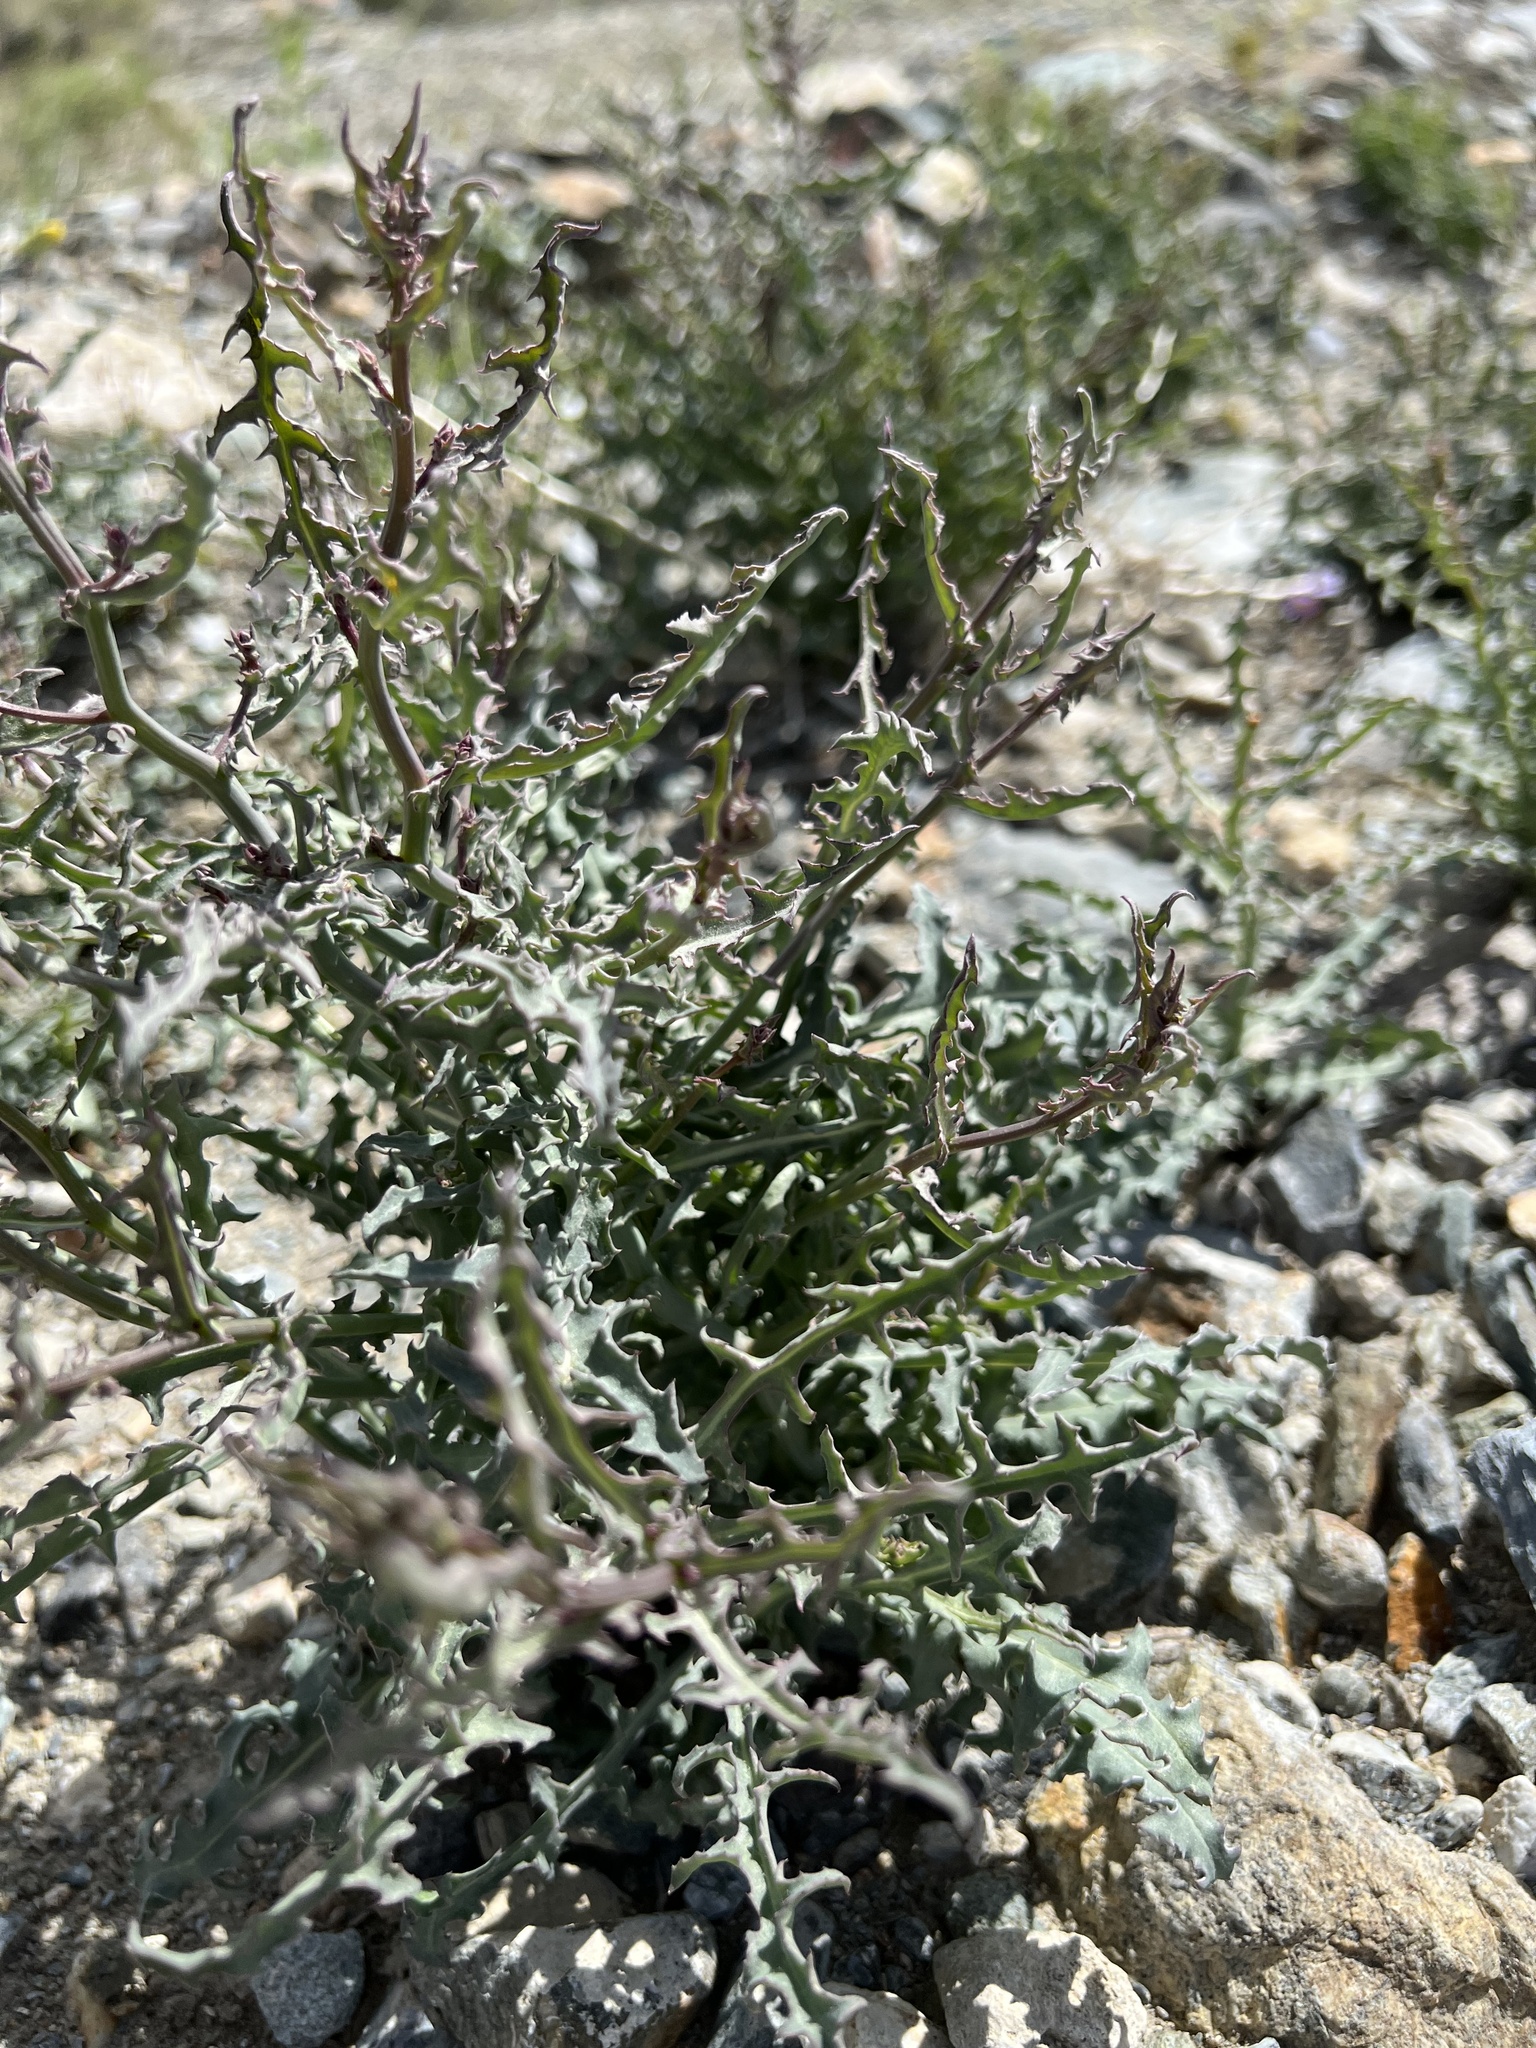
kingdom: Plantae
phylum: Tracheophyta
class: Magnoliopsida
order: Asterales
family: Asteraceae
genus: Stephanomeria
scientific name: Stephanomeria parryi
